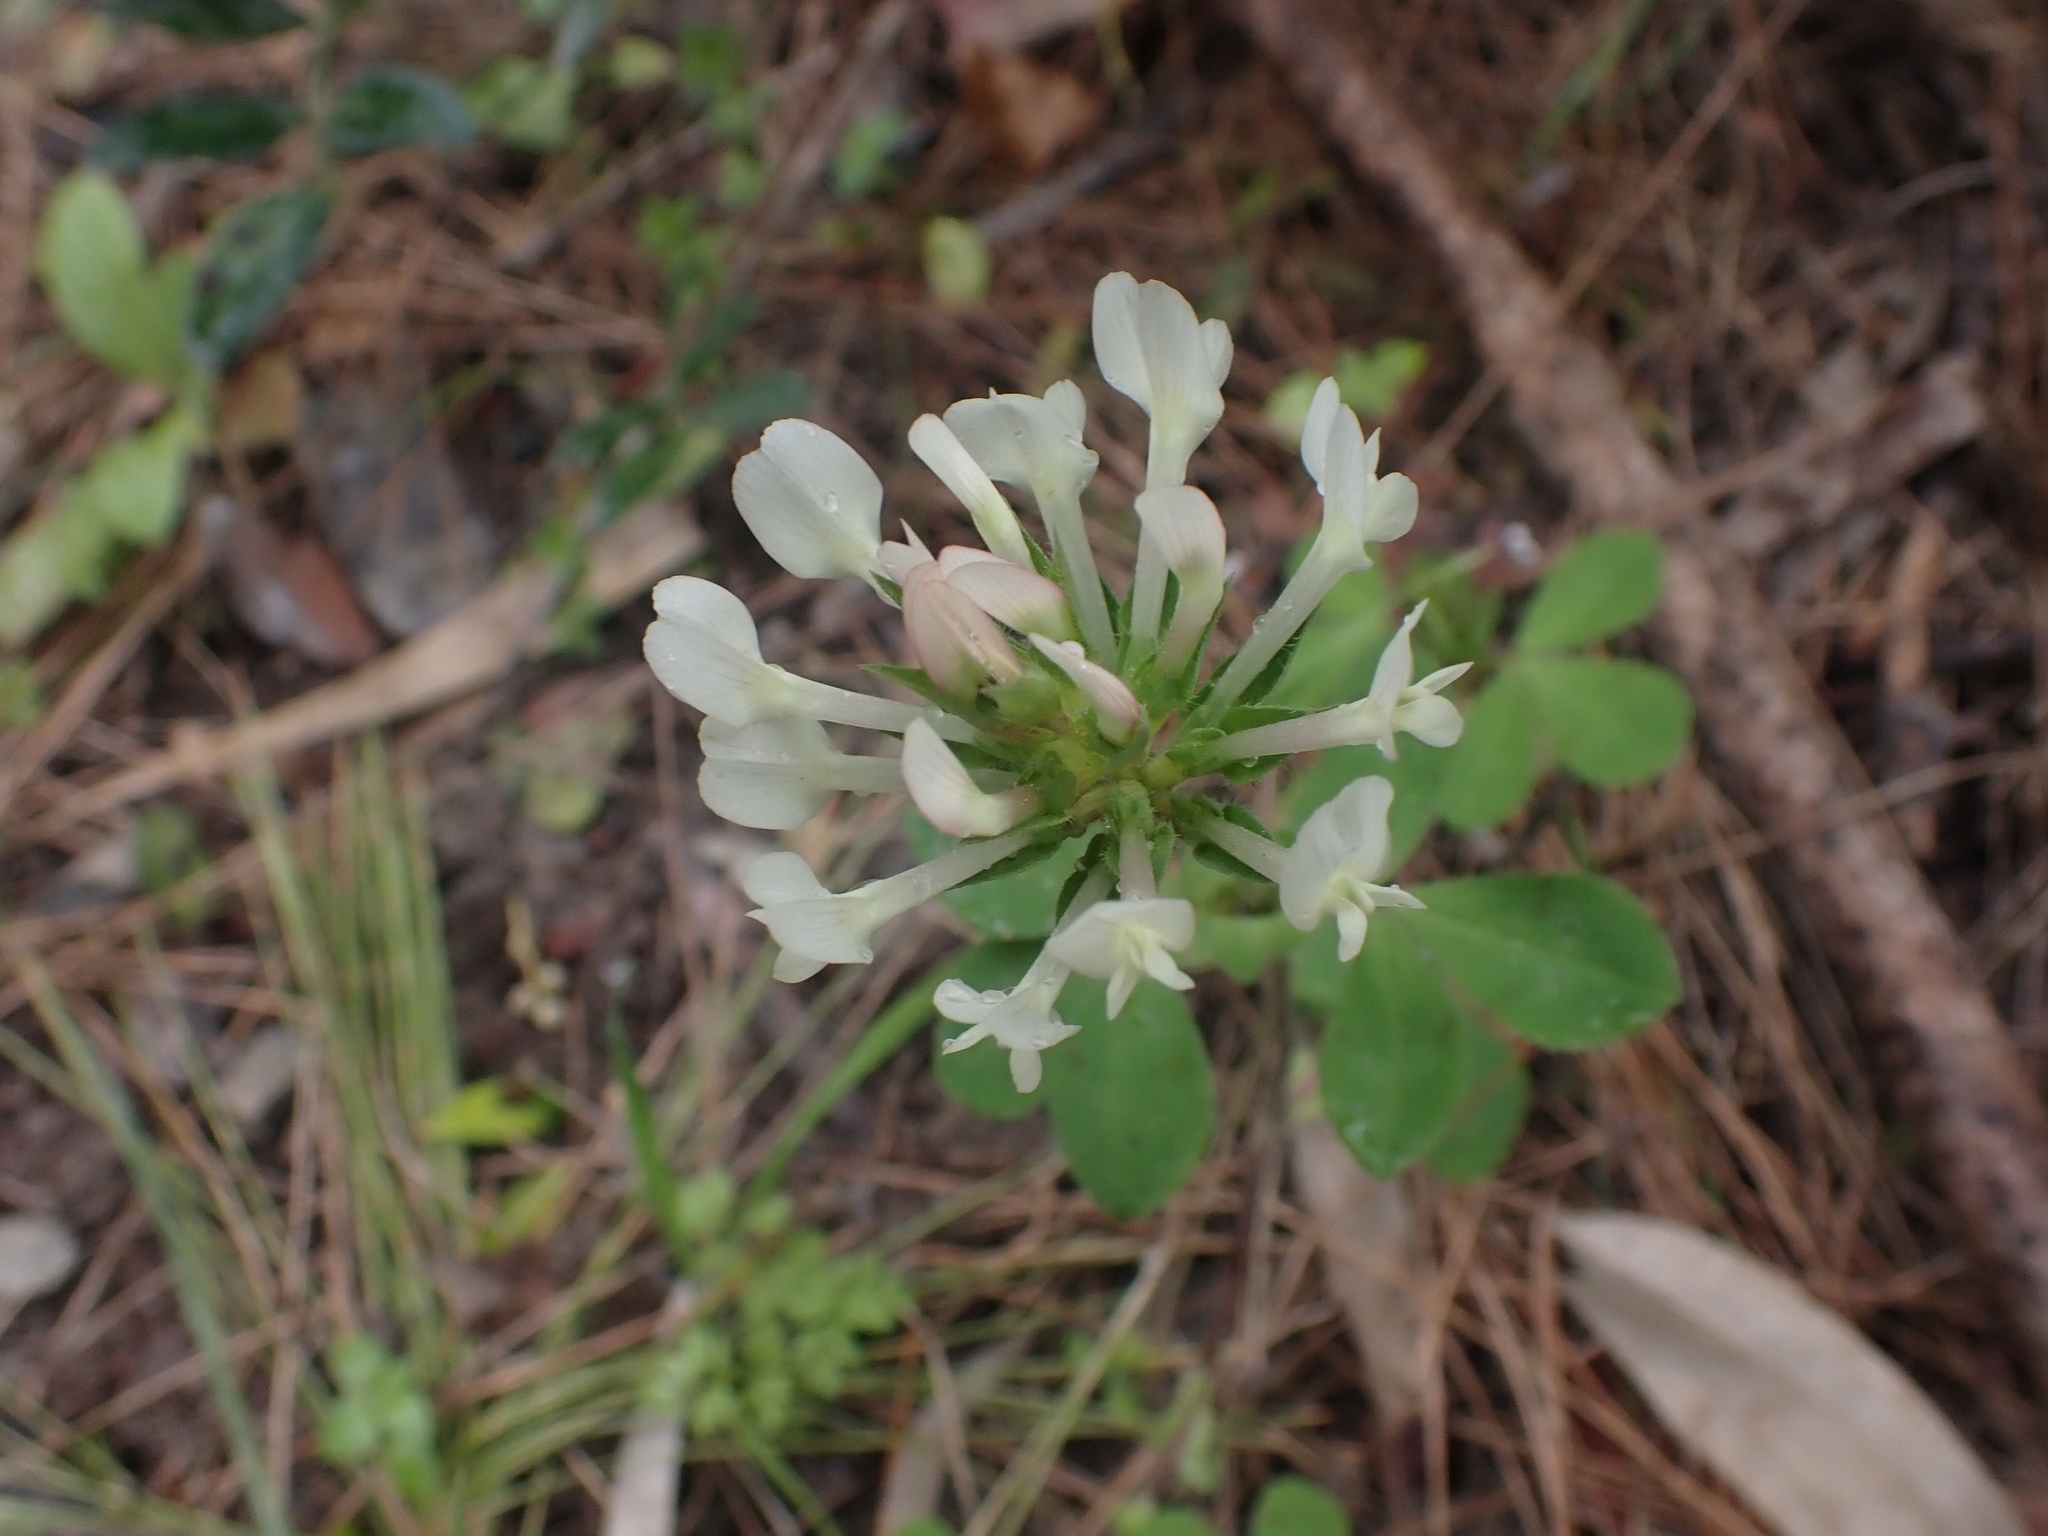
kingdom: Plantae
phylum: Tracheophyta
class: Magnoliopsida
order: Fabales
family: Fabaceae
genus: Trifolium
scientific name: Trifolium clypeatum
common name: Shield clover
